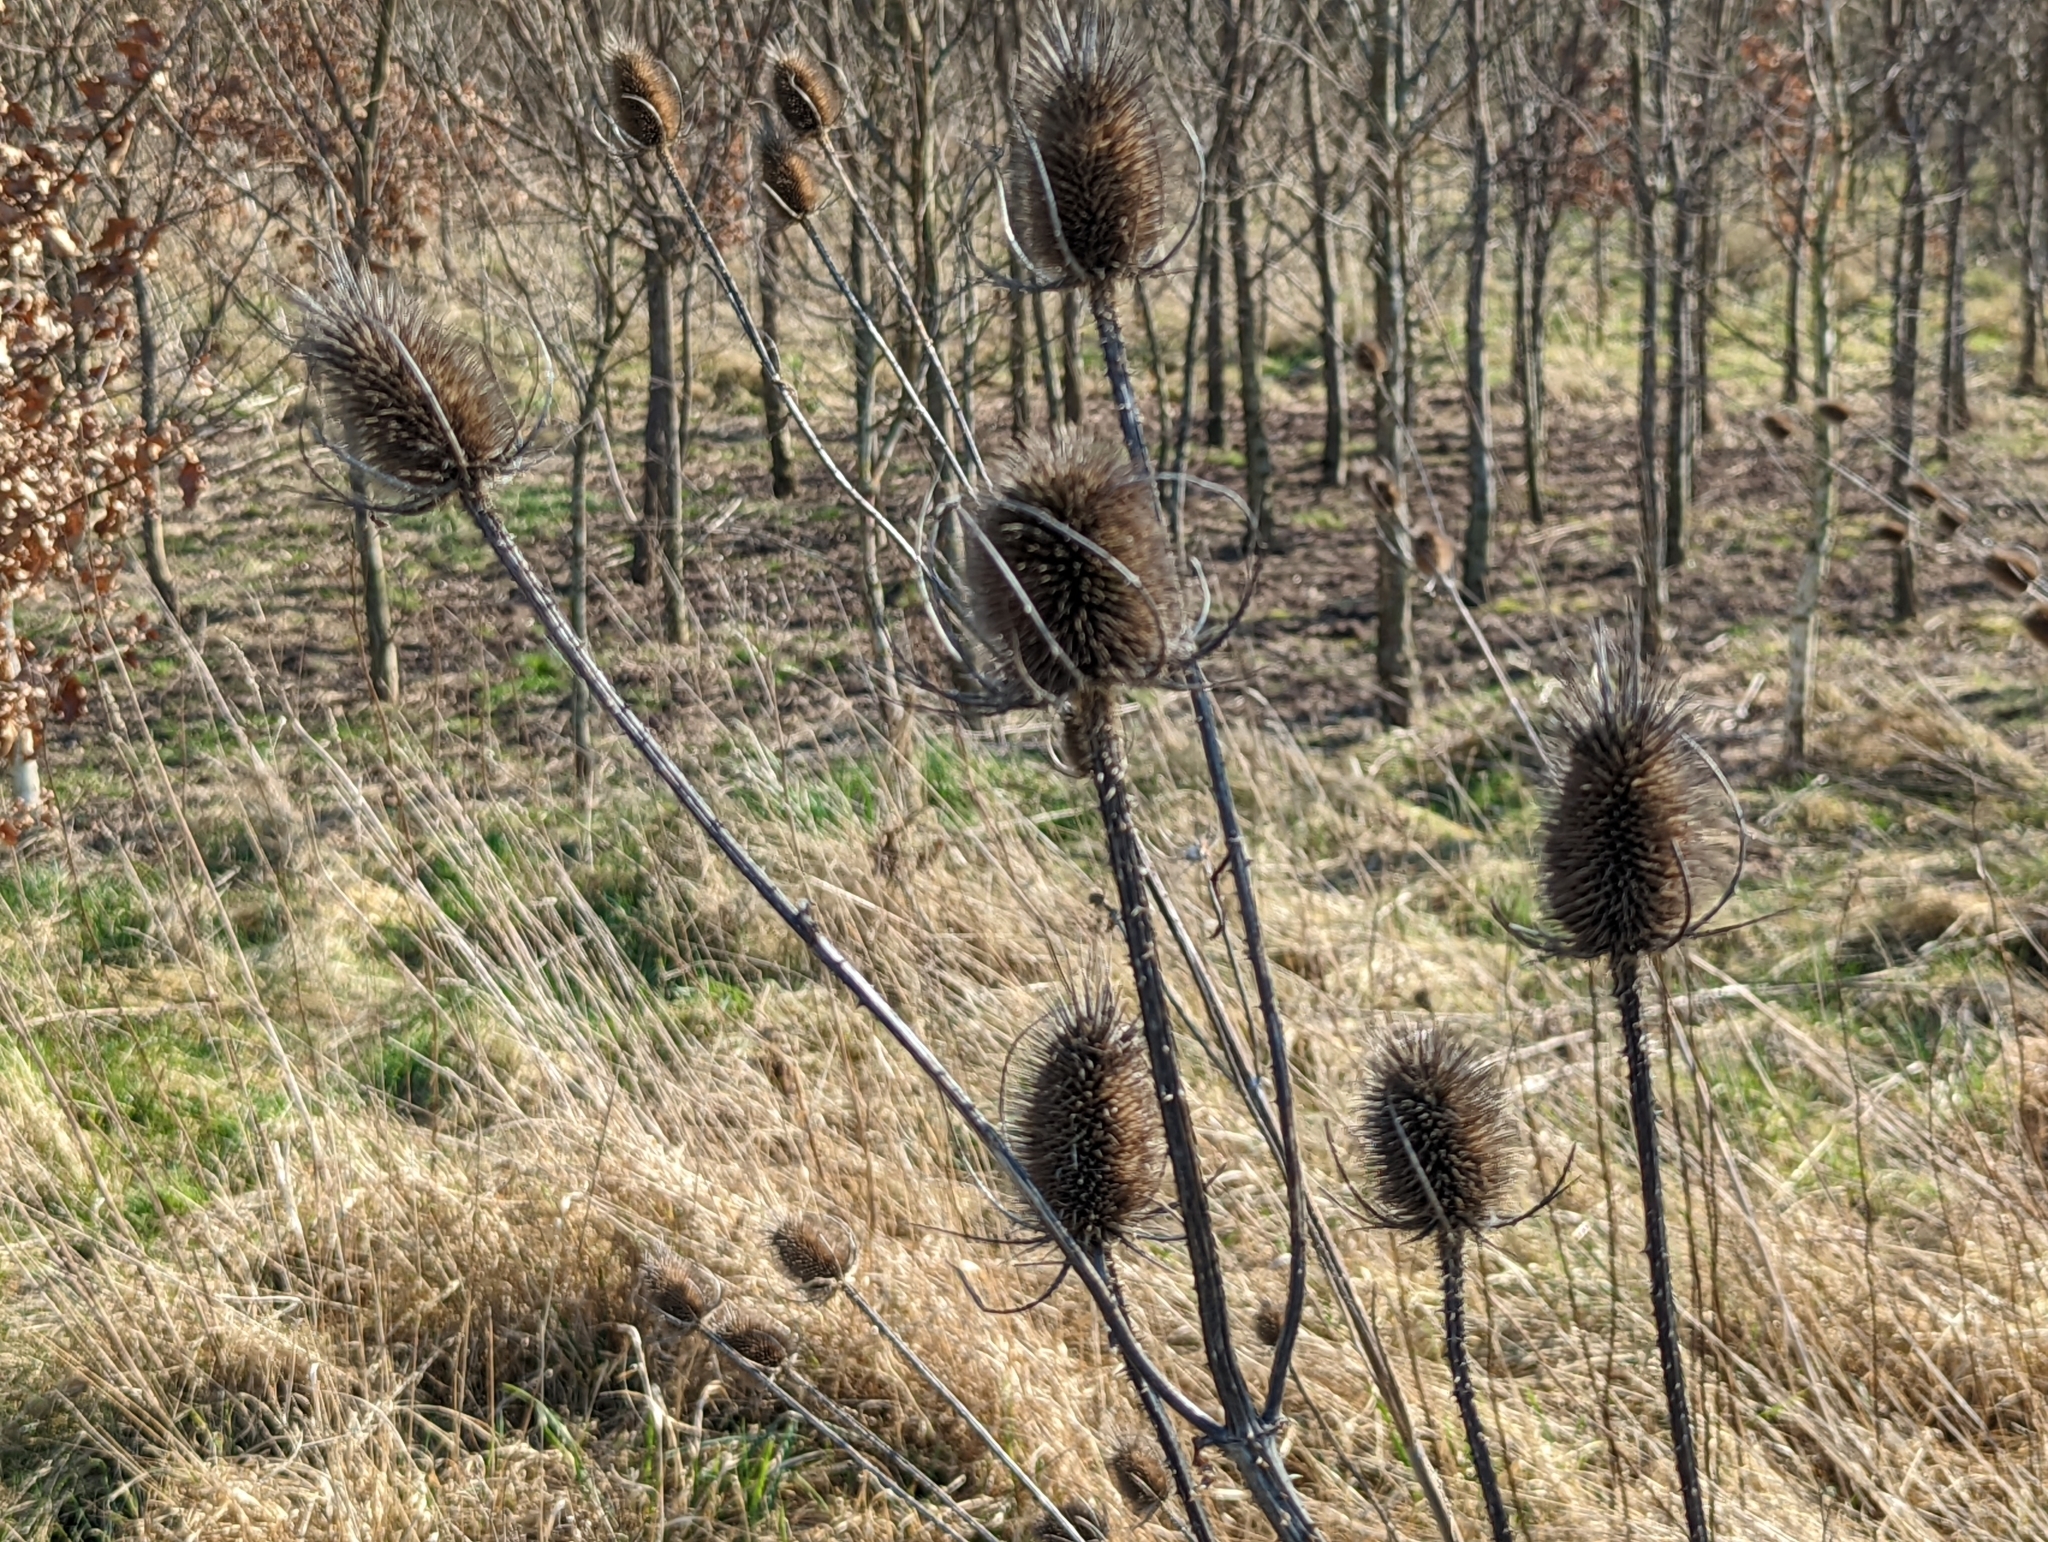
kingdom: Plantae
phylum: Tracheophyta
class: Magnoliopsida
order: Dipsacales
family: Caprifoliaceae
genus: Dipsacus
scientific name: Dipsacus fullonum
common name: Teasel
